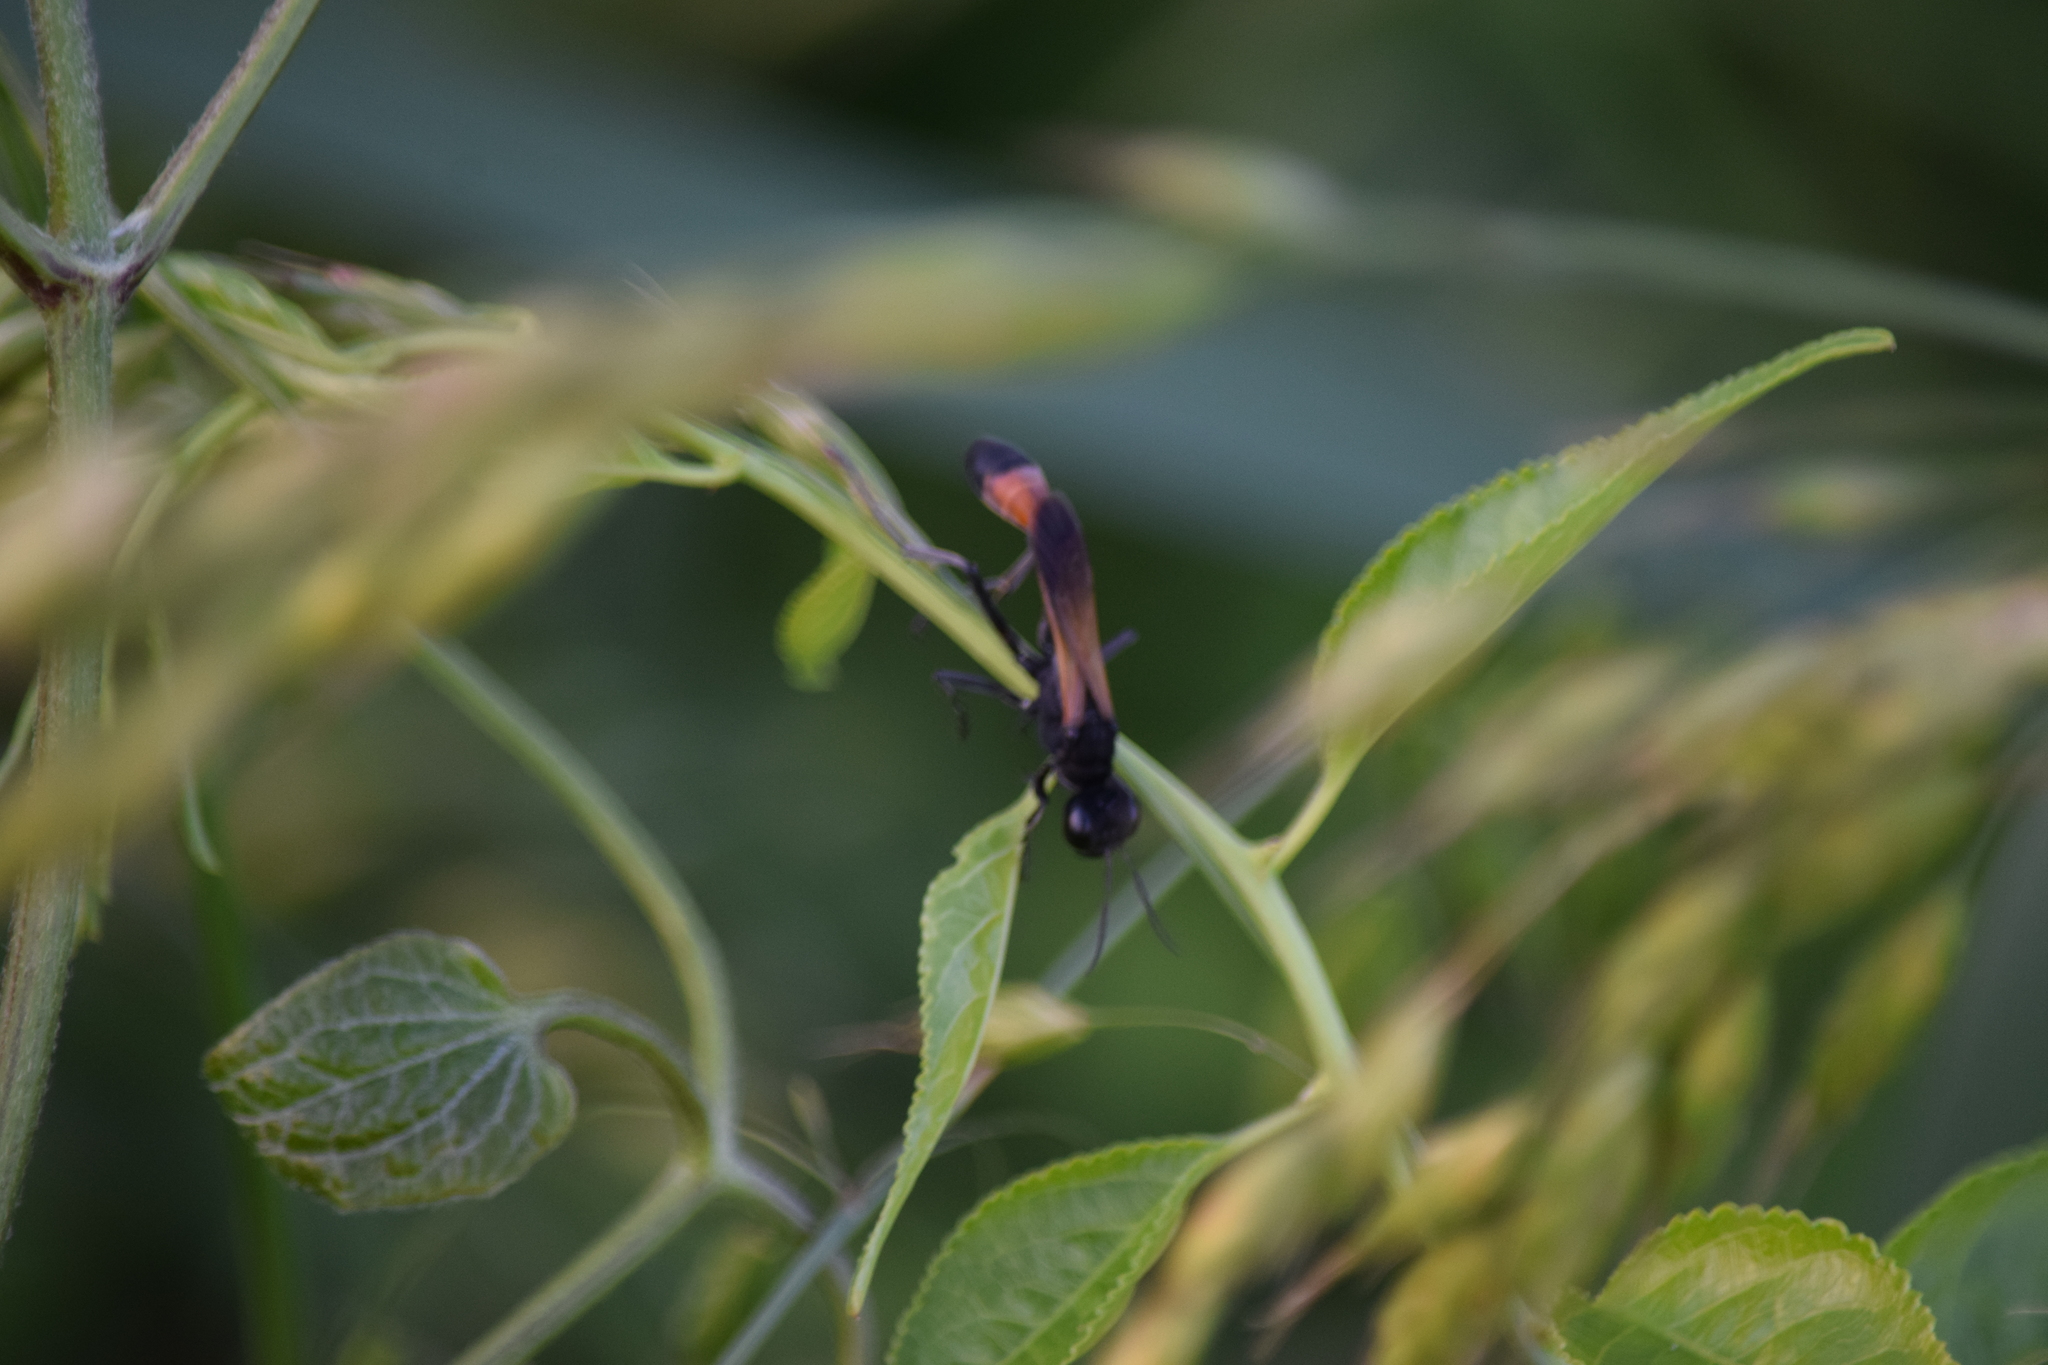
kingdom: Animalia
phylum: Arthropoda
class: Insecta
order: Hymenoptera
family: Sphecidae
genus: Ammophila
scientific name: Ammophila pictipennis
